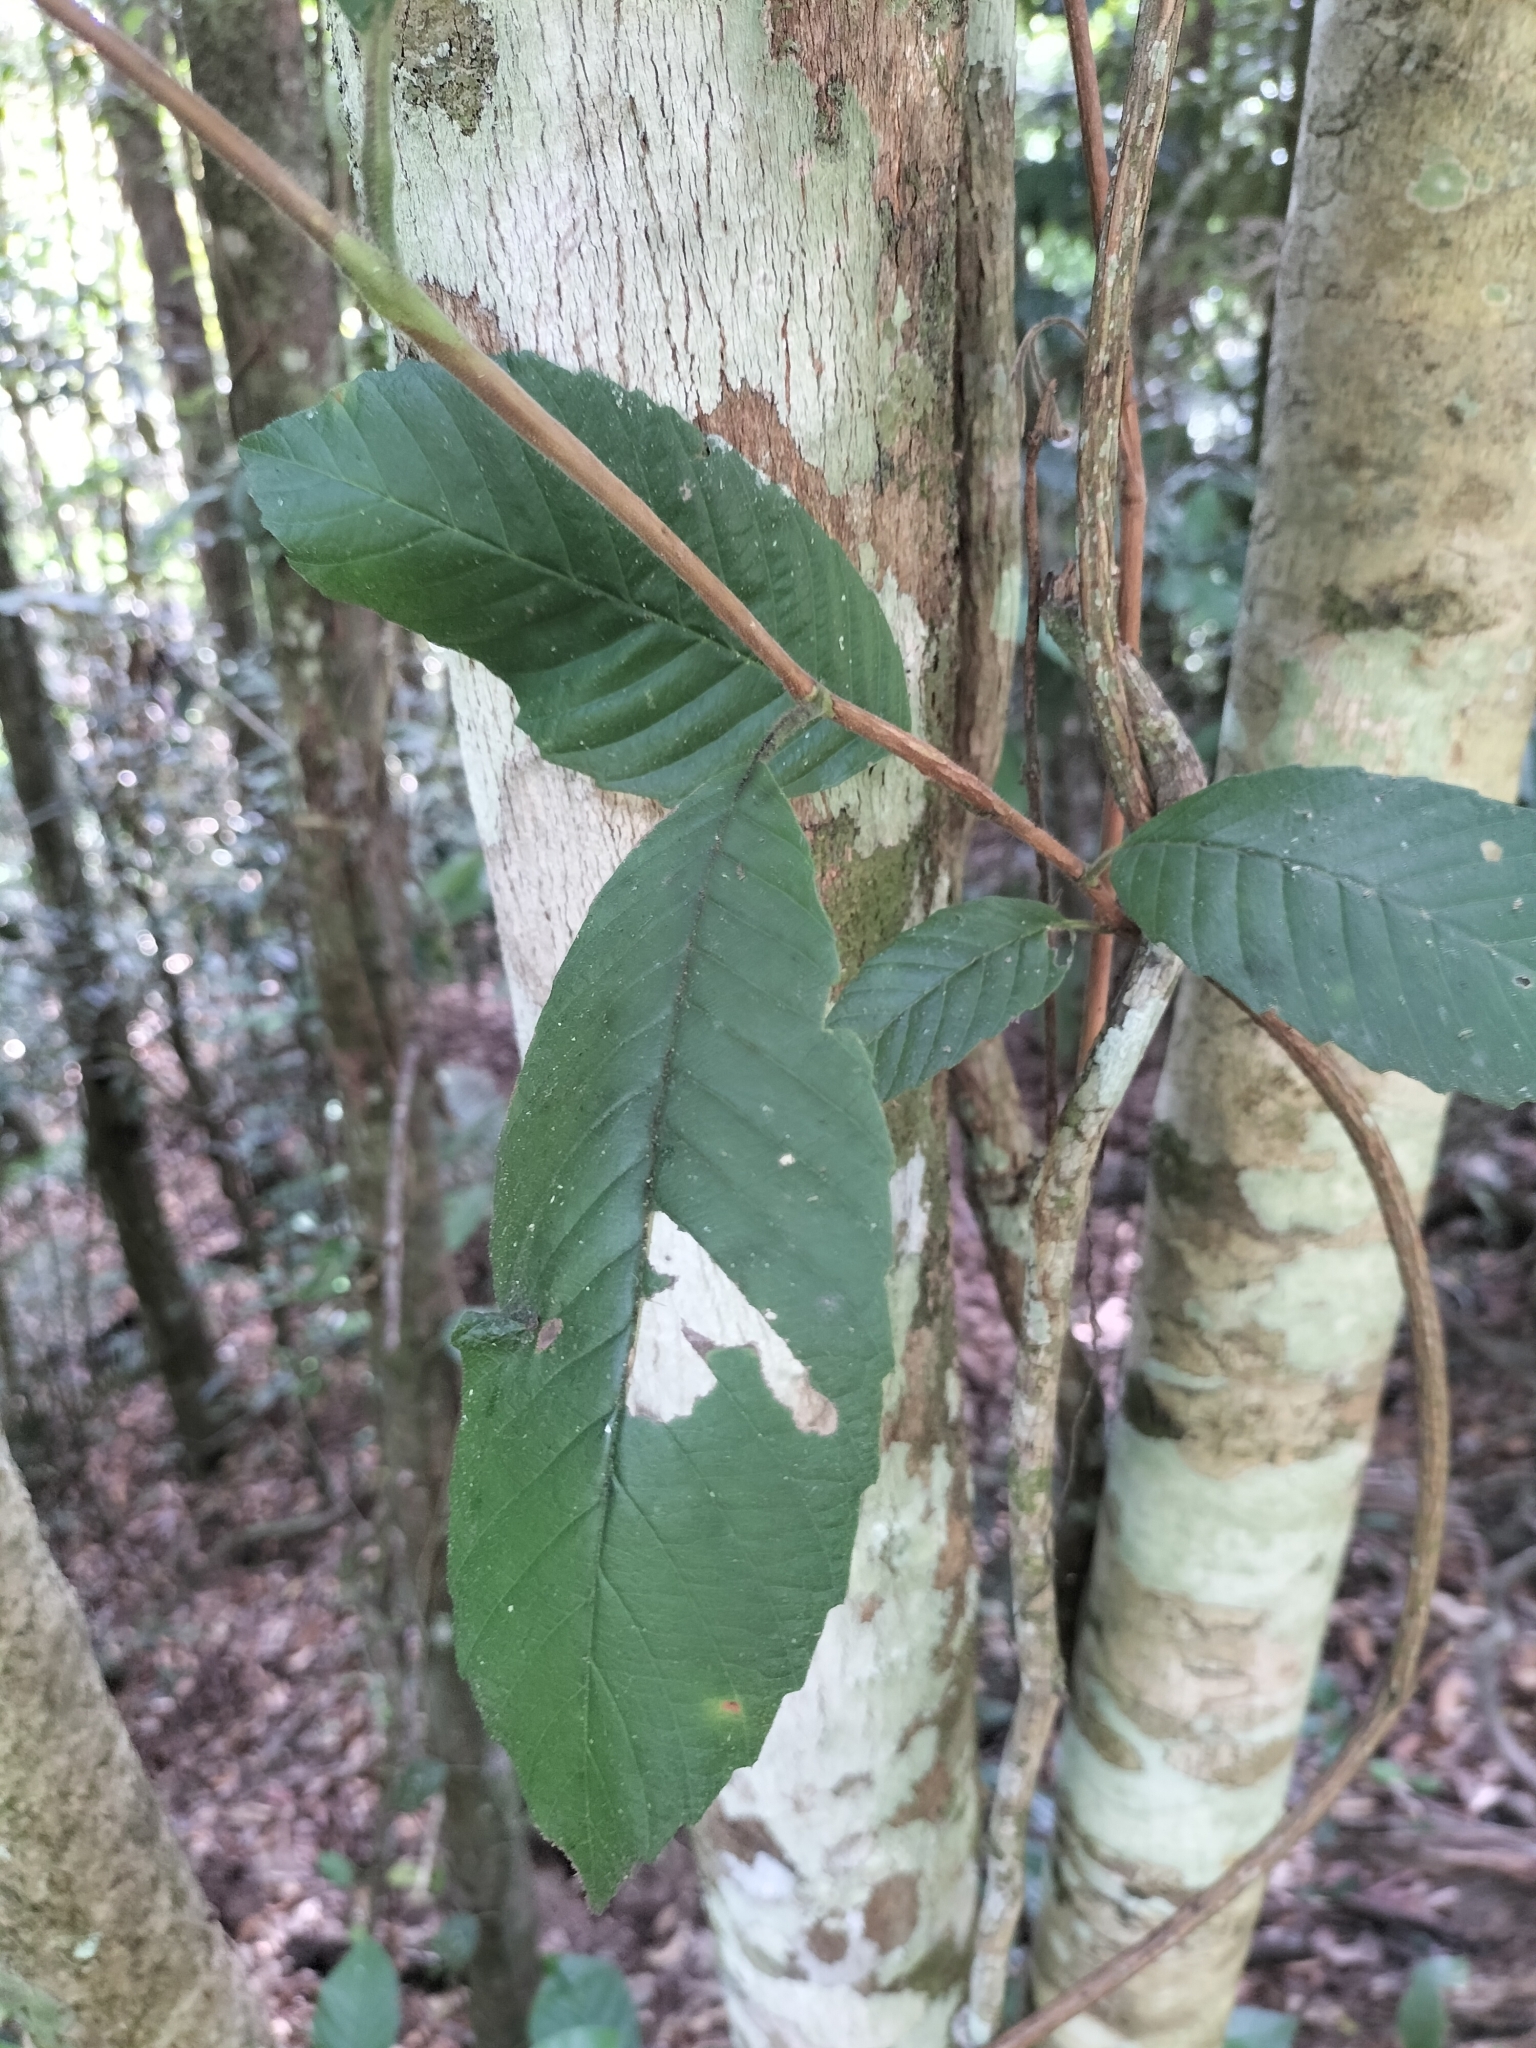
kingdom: Plantae
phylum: Tracheophyta
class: Magnoliopsida
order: Dilleniales
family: Dilleniaceae
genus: Tetracera
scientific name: Tetracera nordtiana
